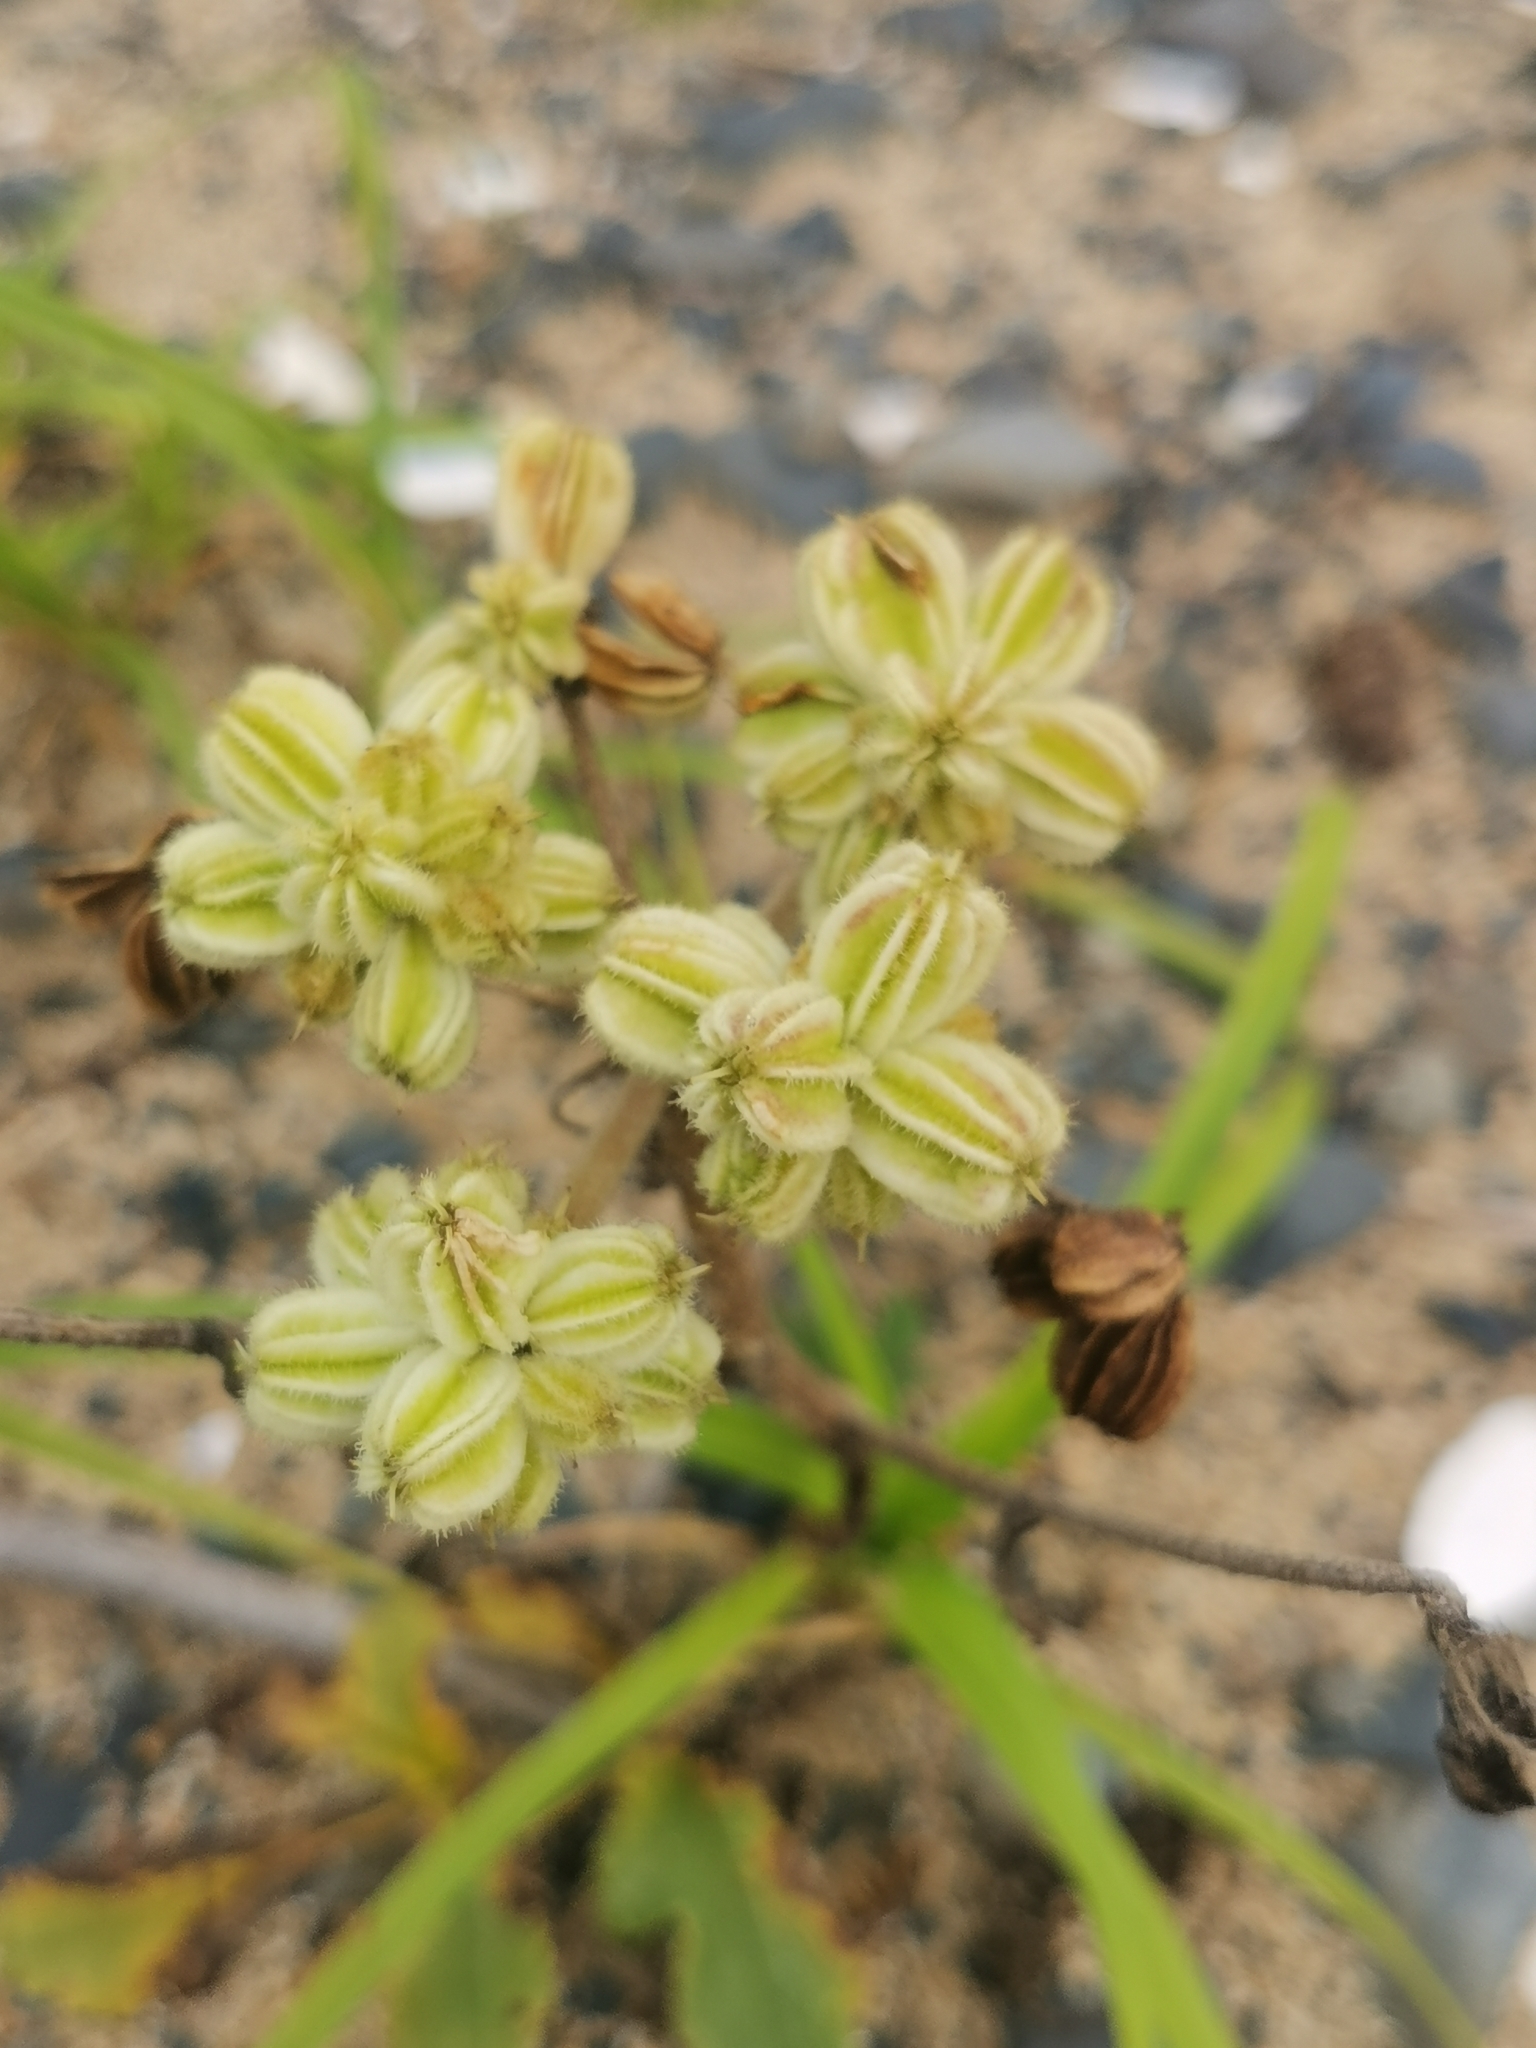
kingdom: Plantae
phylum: Tracheophyta
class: Magnoliopsida
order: Apiales
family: Apiaceae
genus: Glehnia
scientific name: Glehnia littoralis
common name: Beach silvertop
